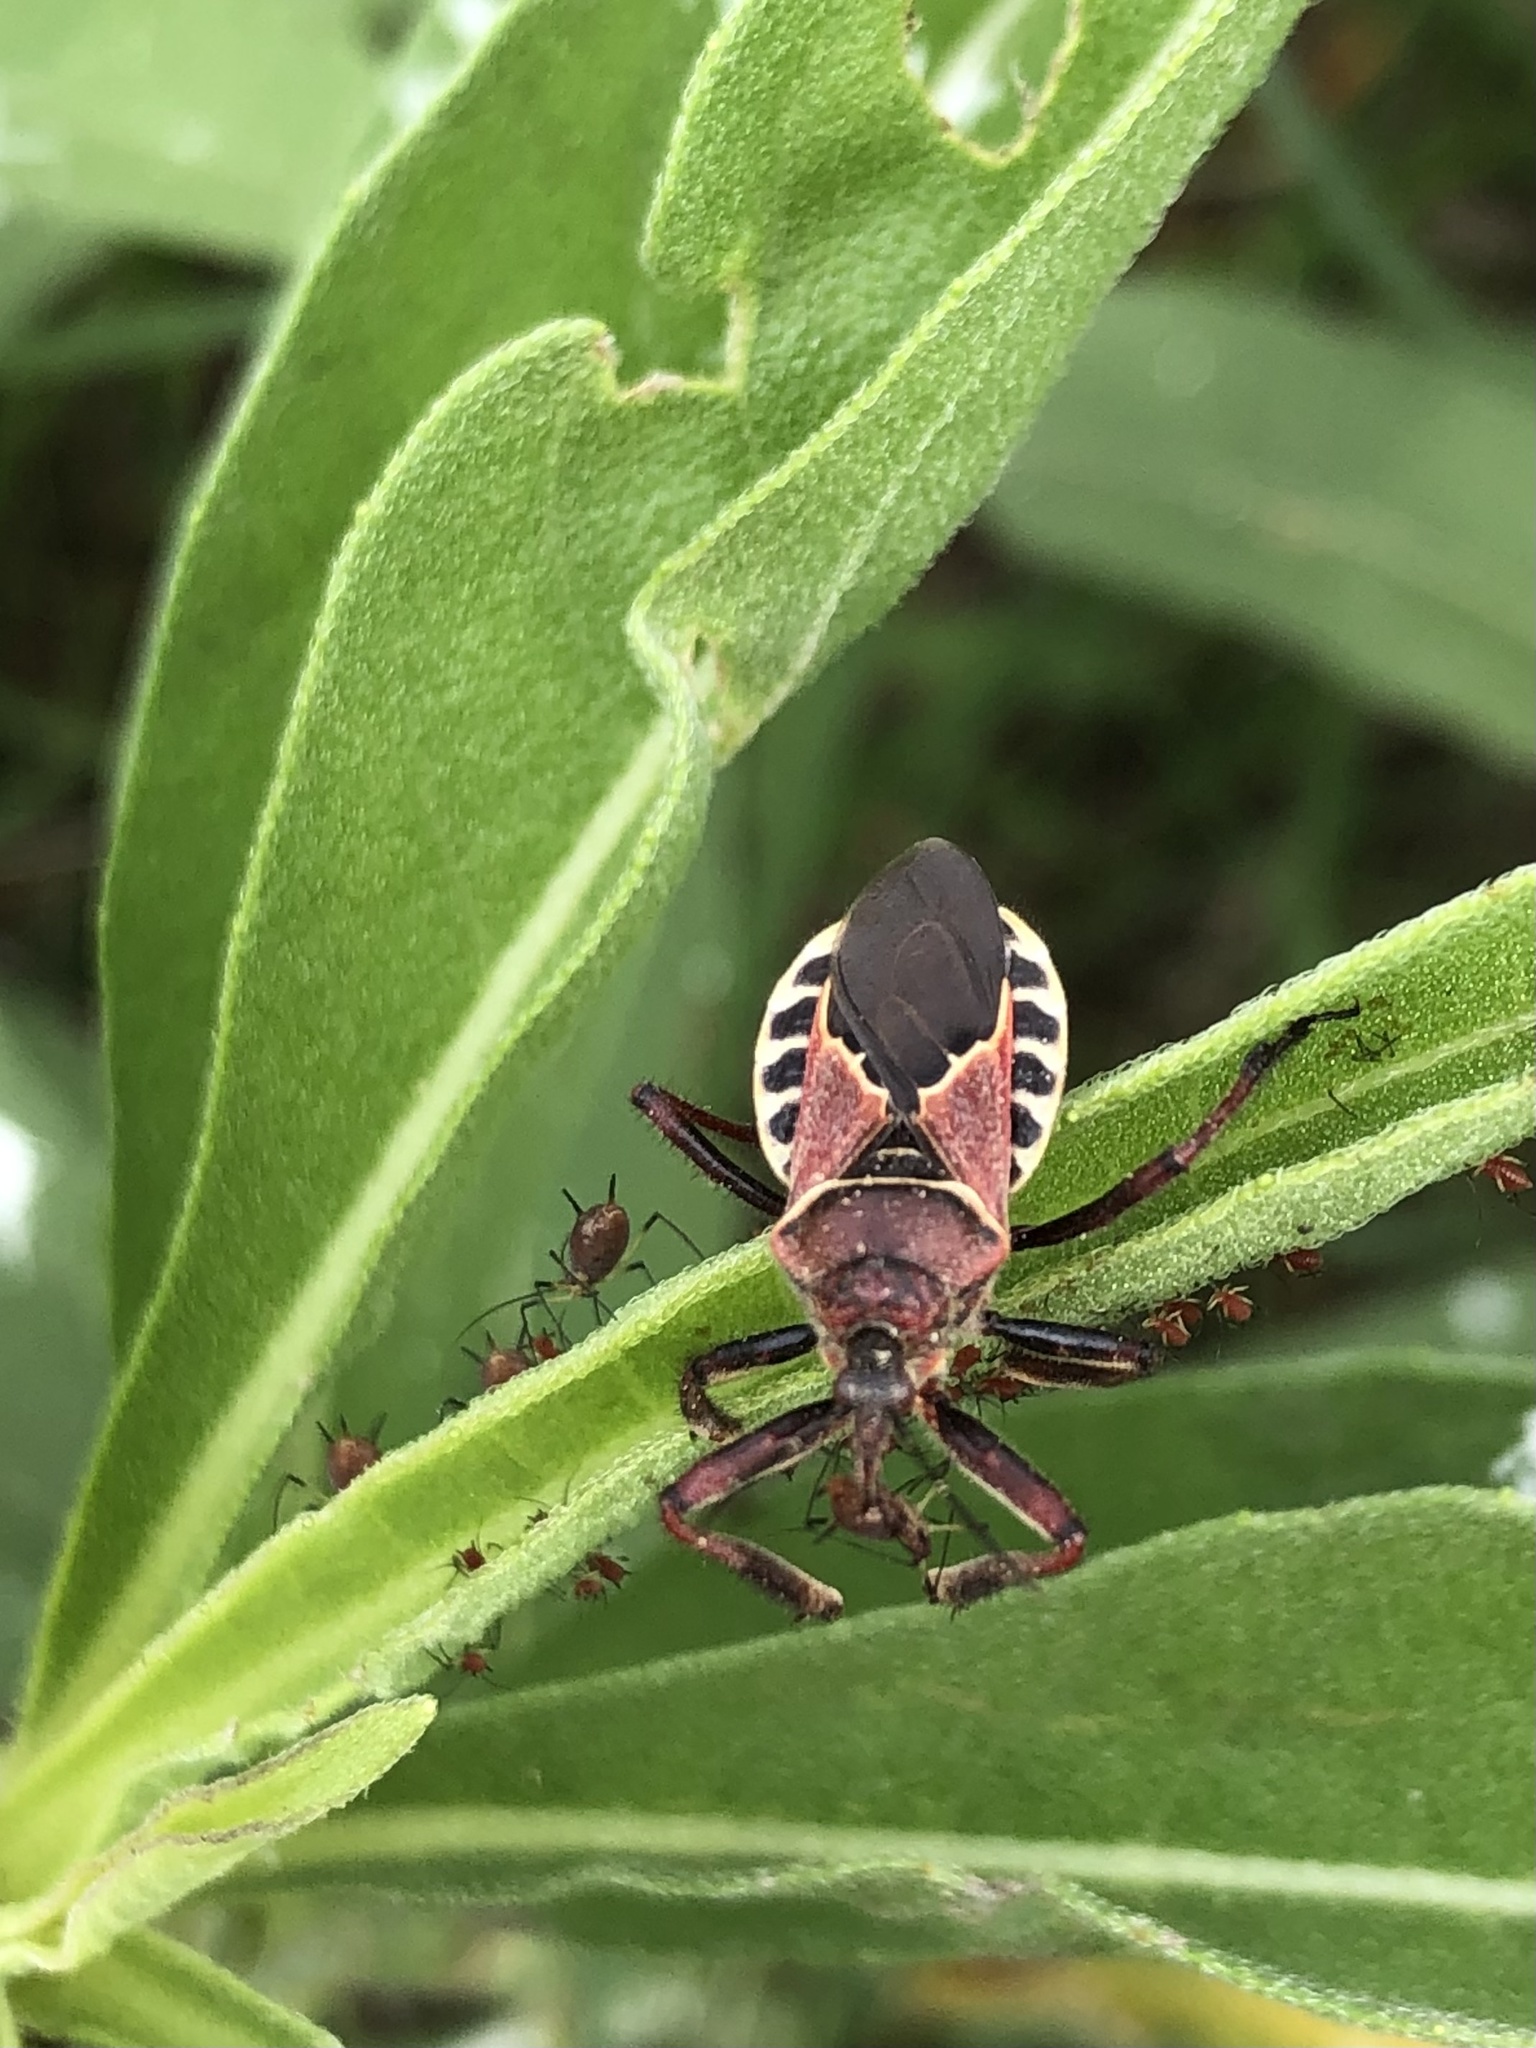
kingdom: Animalia
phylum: Arthropoda
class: Insecta
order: Hemiptera
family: Reduviidae
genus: Apiomerus
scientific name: Apiomerus spissipes
